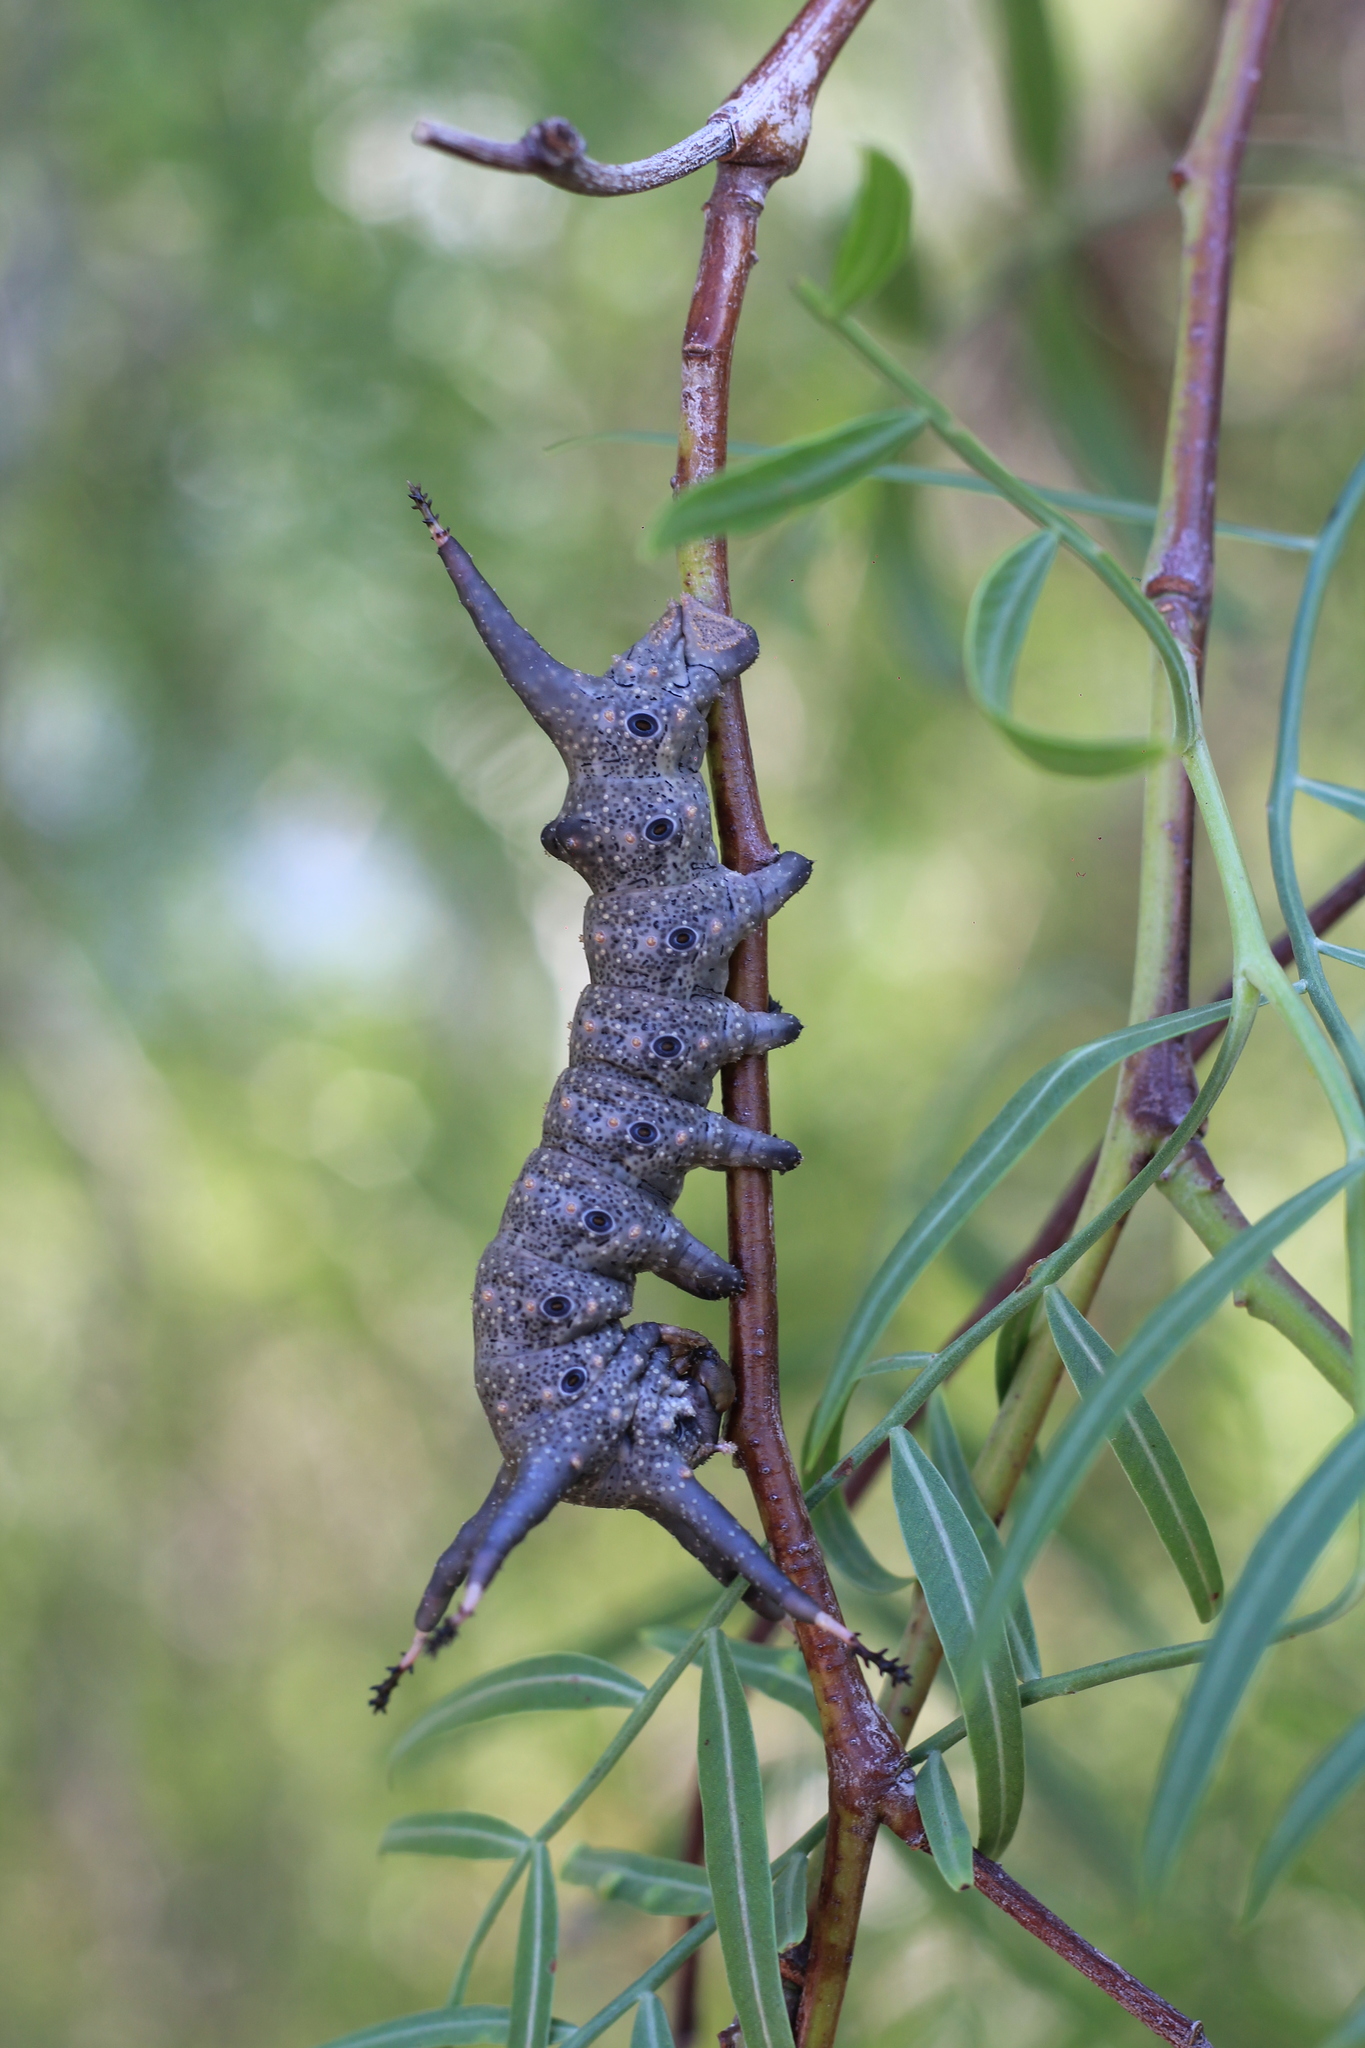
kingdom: Animalia
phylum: Arthropoda
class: Insecta
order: Lepidoptera
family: Saturniidae
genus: Citheronia
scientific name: Citheronia vogleri
